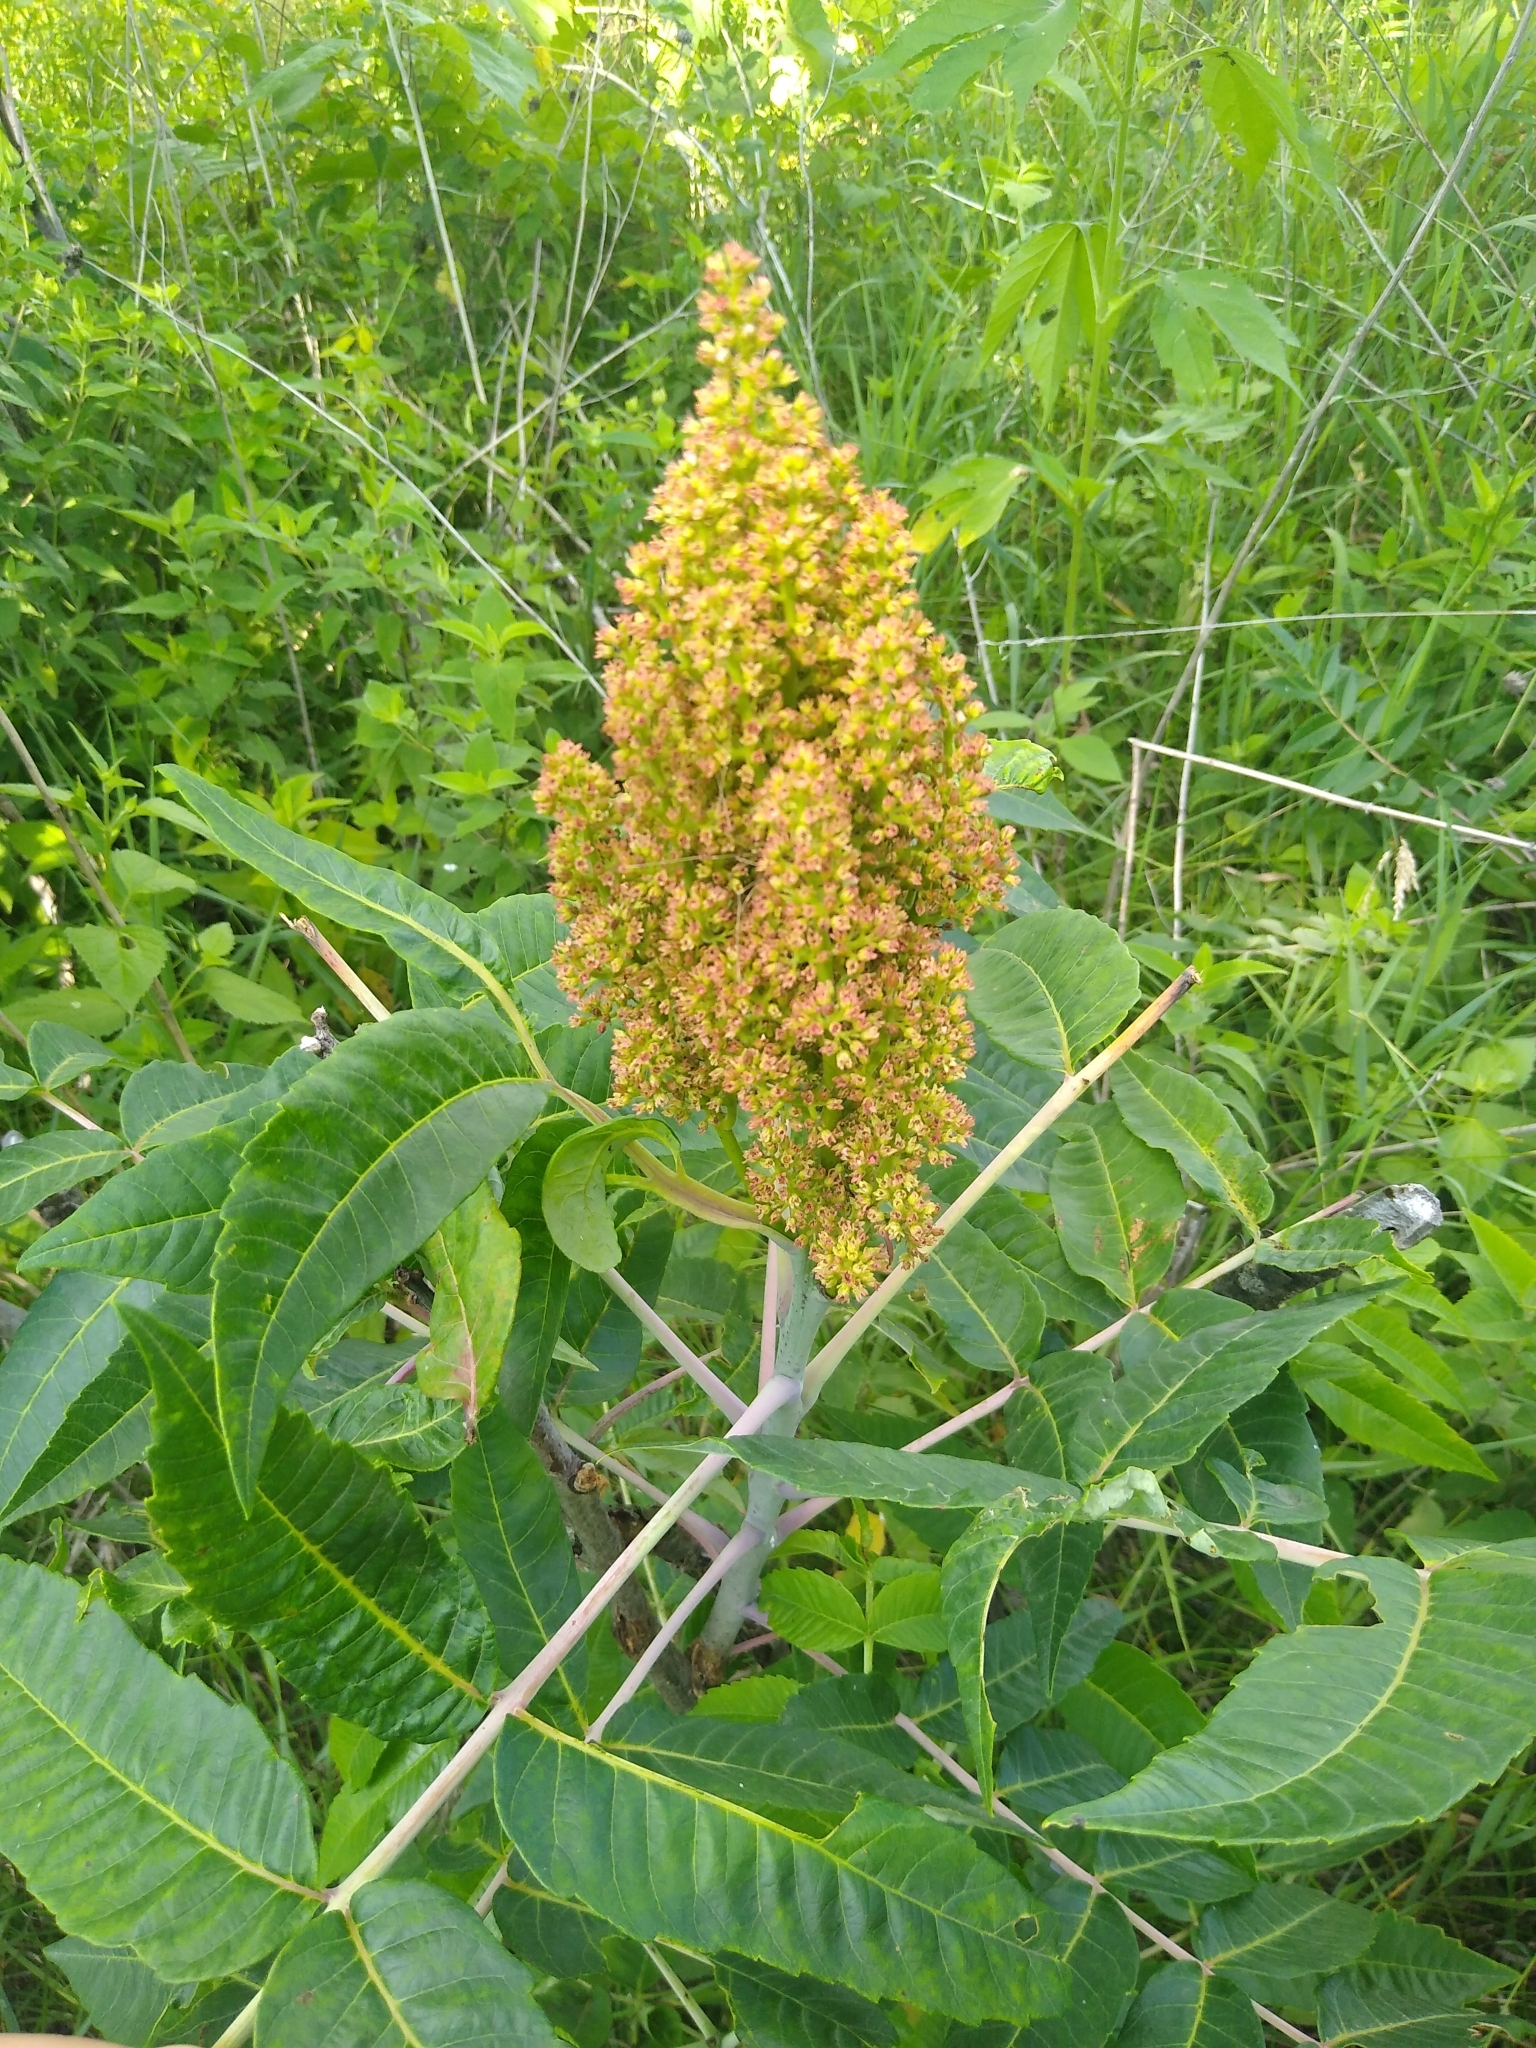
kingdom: Plantae
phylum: Tracheophyta
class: Magnoliopsida
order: Sapindales
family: Anacardiaceae
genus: Rhus
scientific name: Rhus glabra
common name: Scarlet sumac
